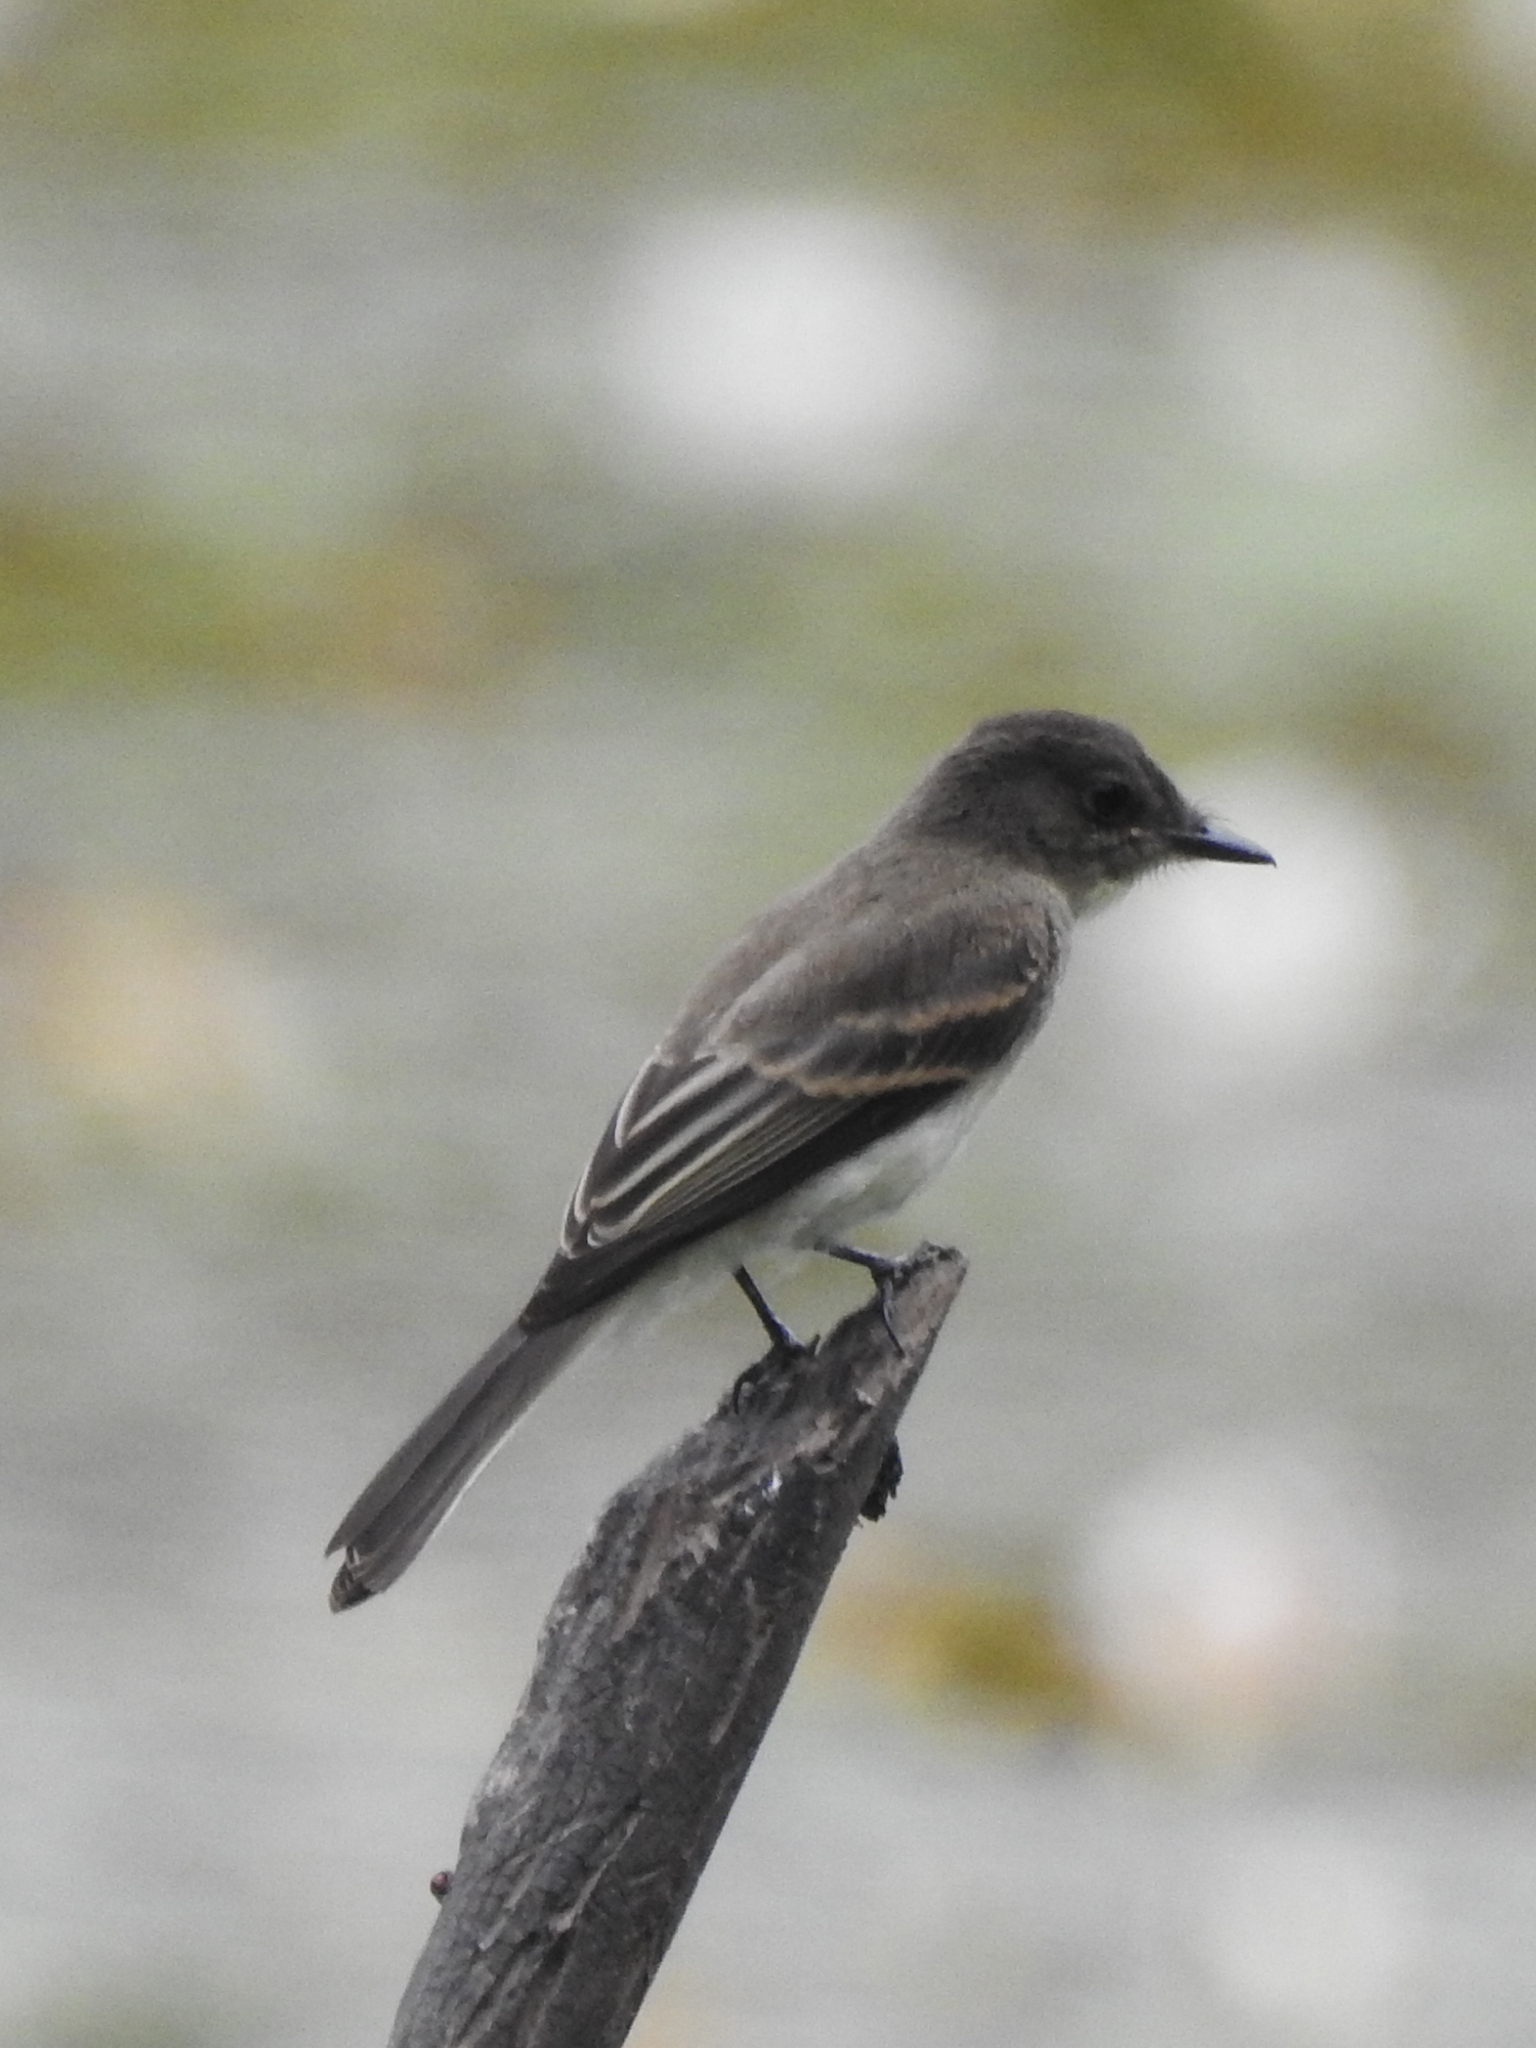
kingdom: Animalia
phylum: Chordata
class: Aves
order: Passeriformes
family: Tyrannidae
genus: Sayornis
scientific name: Sayornis phoebe
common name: Eastern phoebe
